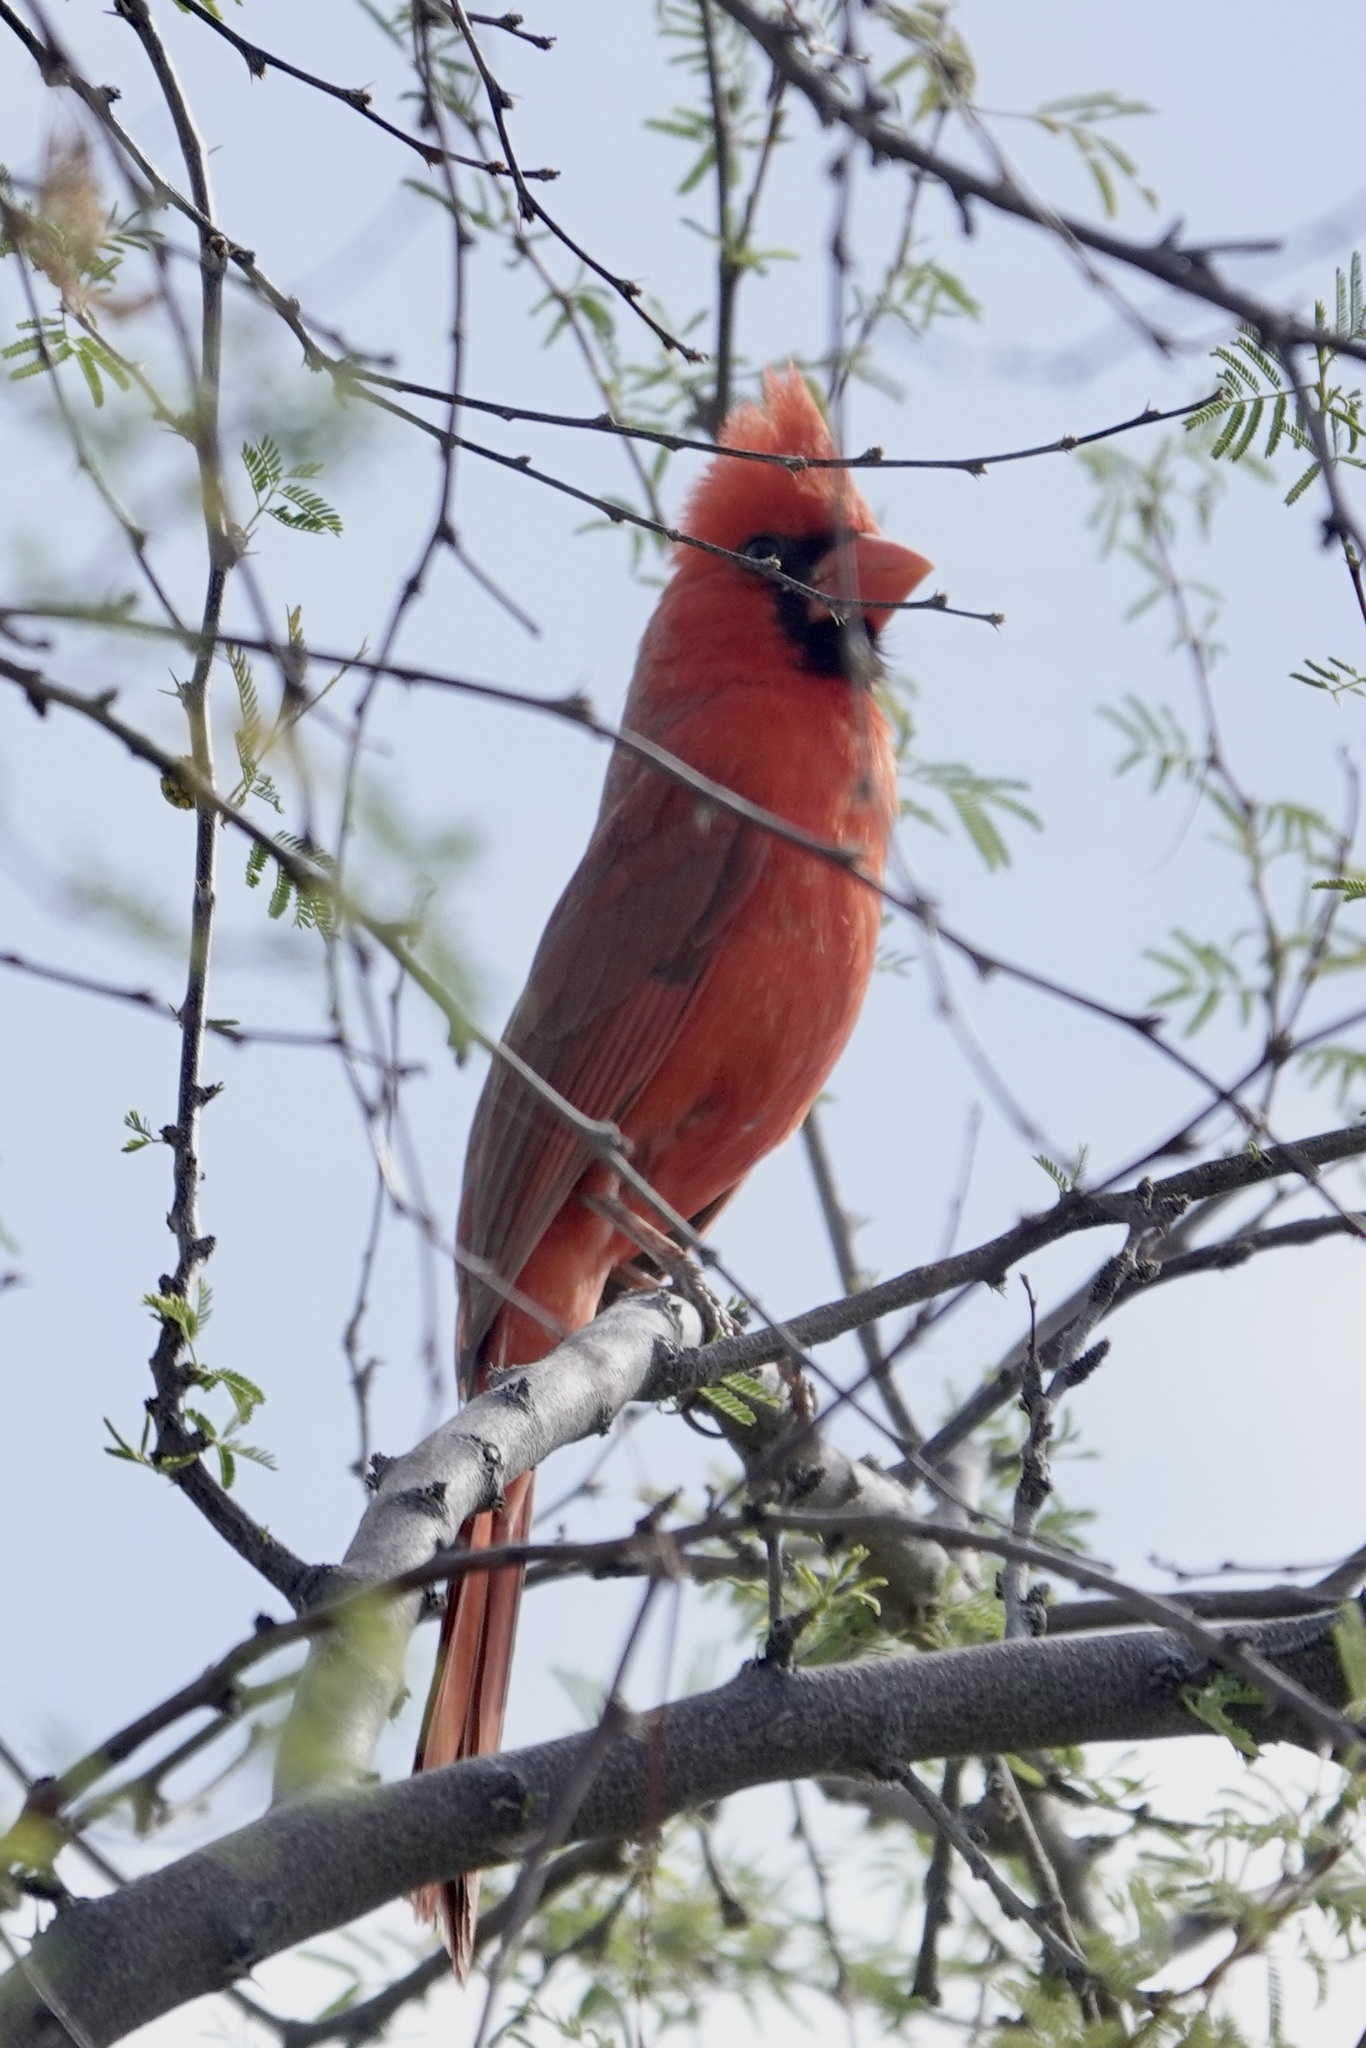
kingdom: Animalia
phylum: Chordata
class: Aves
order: Passeriformes
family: Cardinalidae
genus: Cardinalis
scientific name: Cardinalis cardinalis
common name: Northern cardinal
